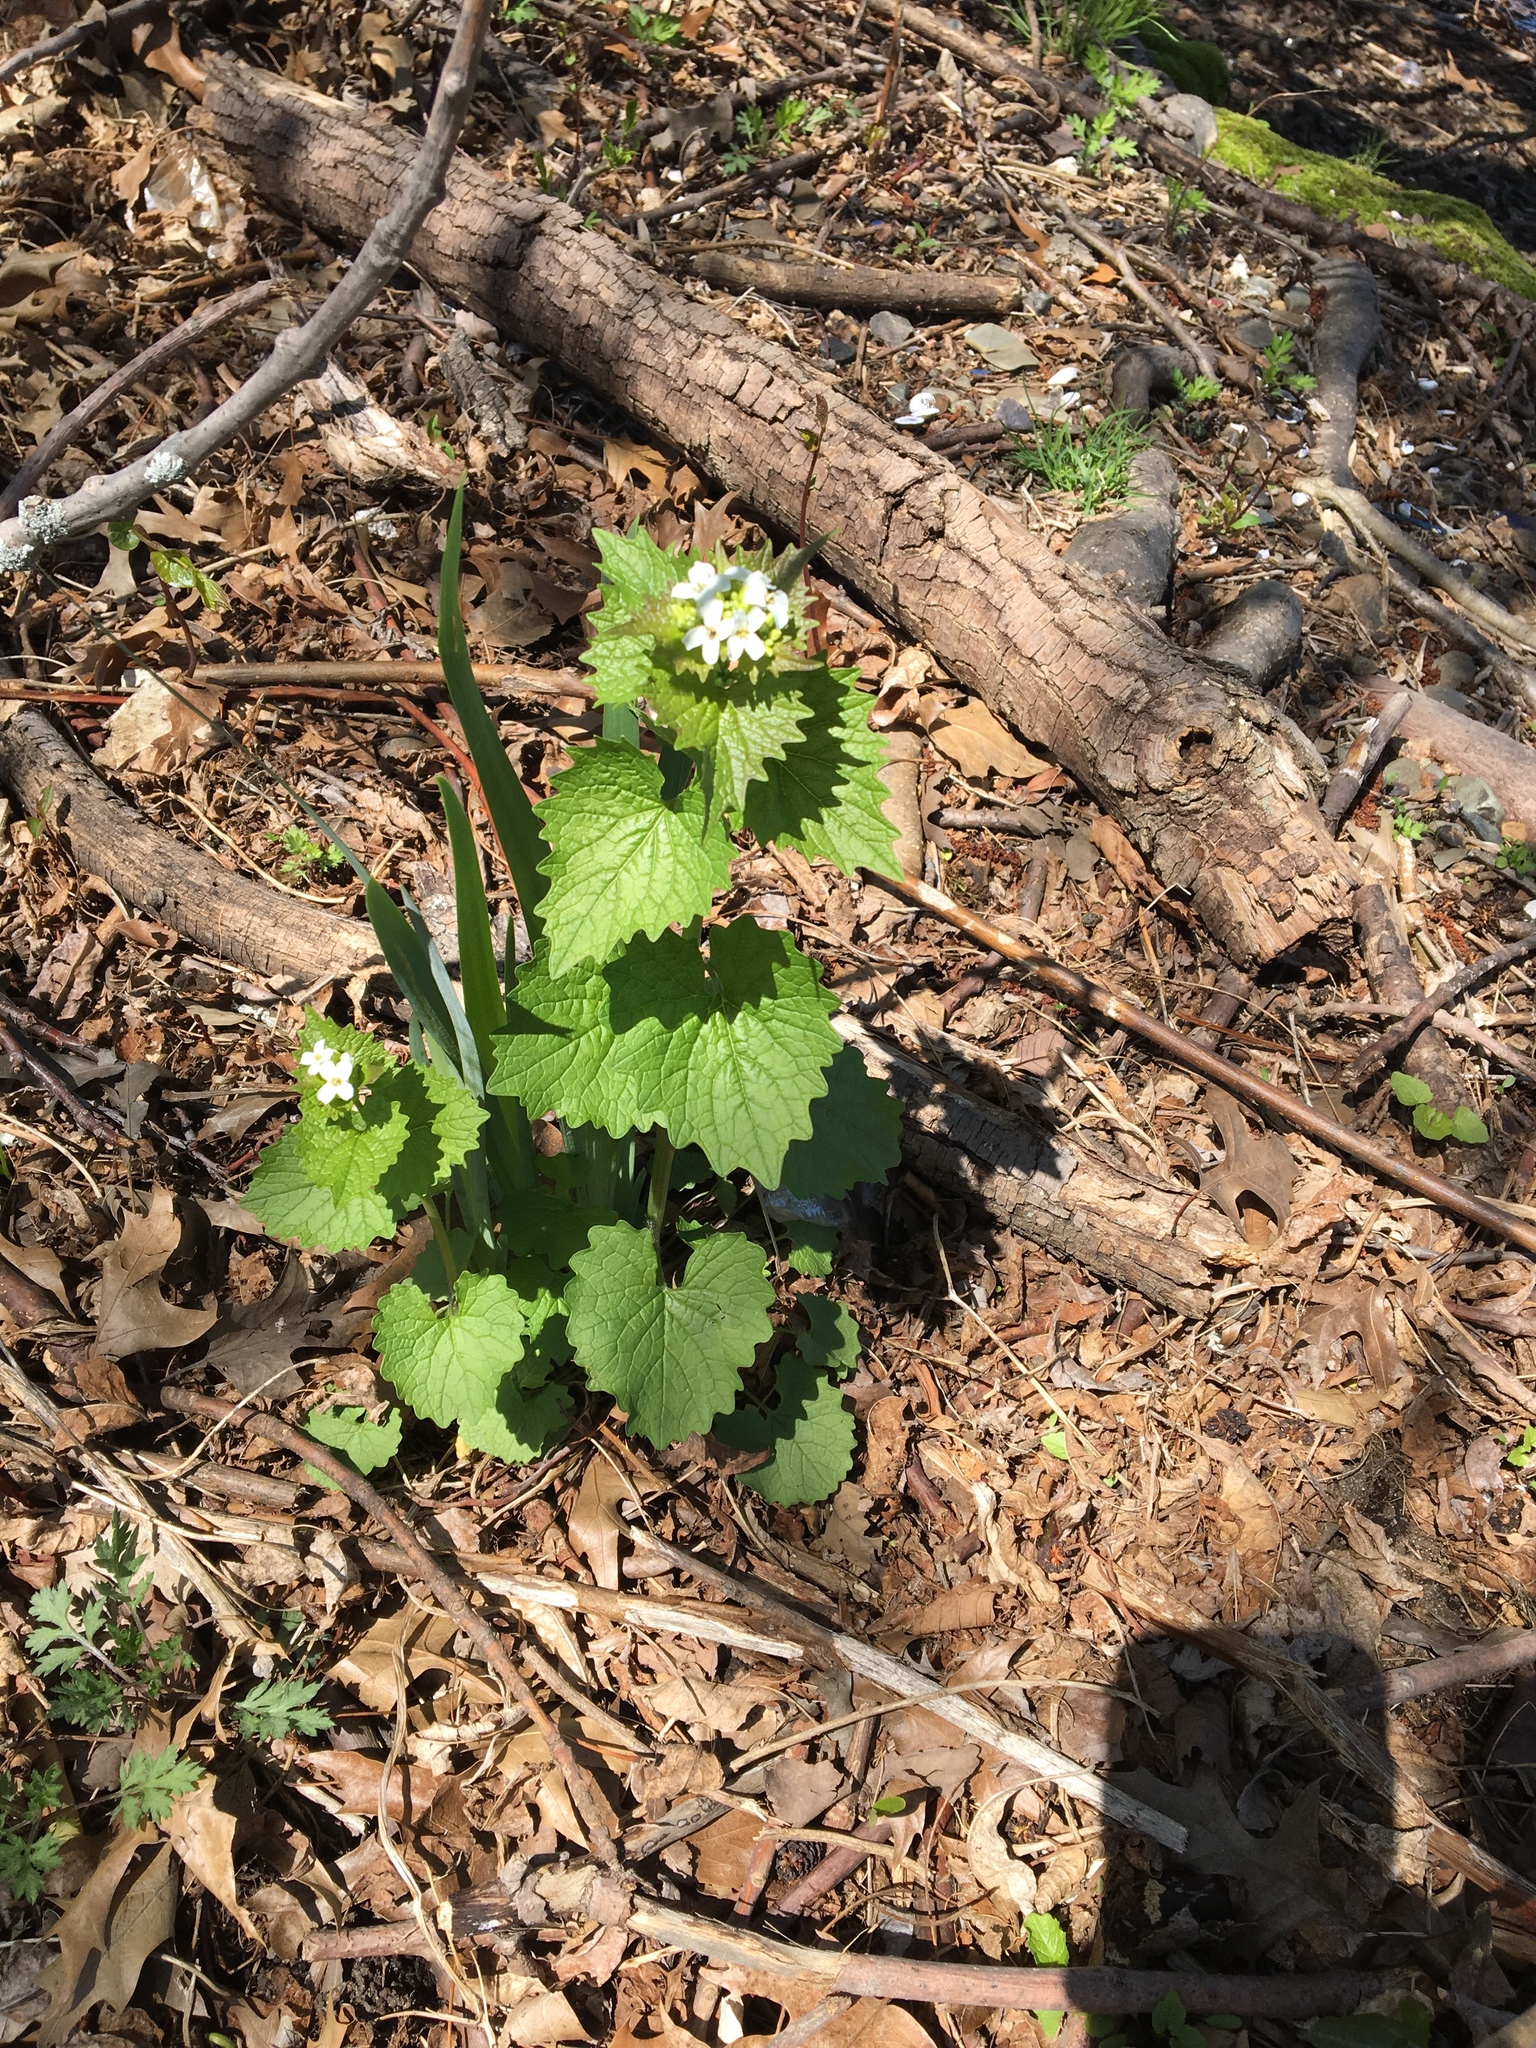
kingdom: Plantae
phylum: Tracheophyta
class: Magnoliopsida
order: Brassicales
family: Brassicaceae
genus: Alliaria
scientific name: Alliaria petiolata
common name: Garlic mustard
